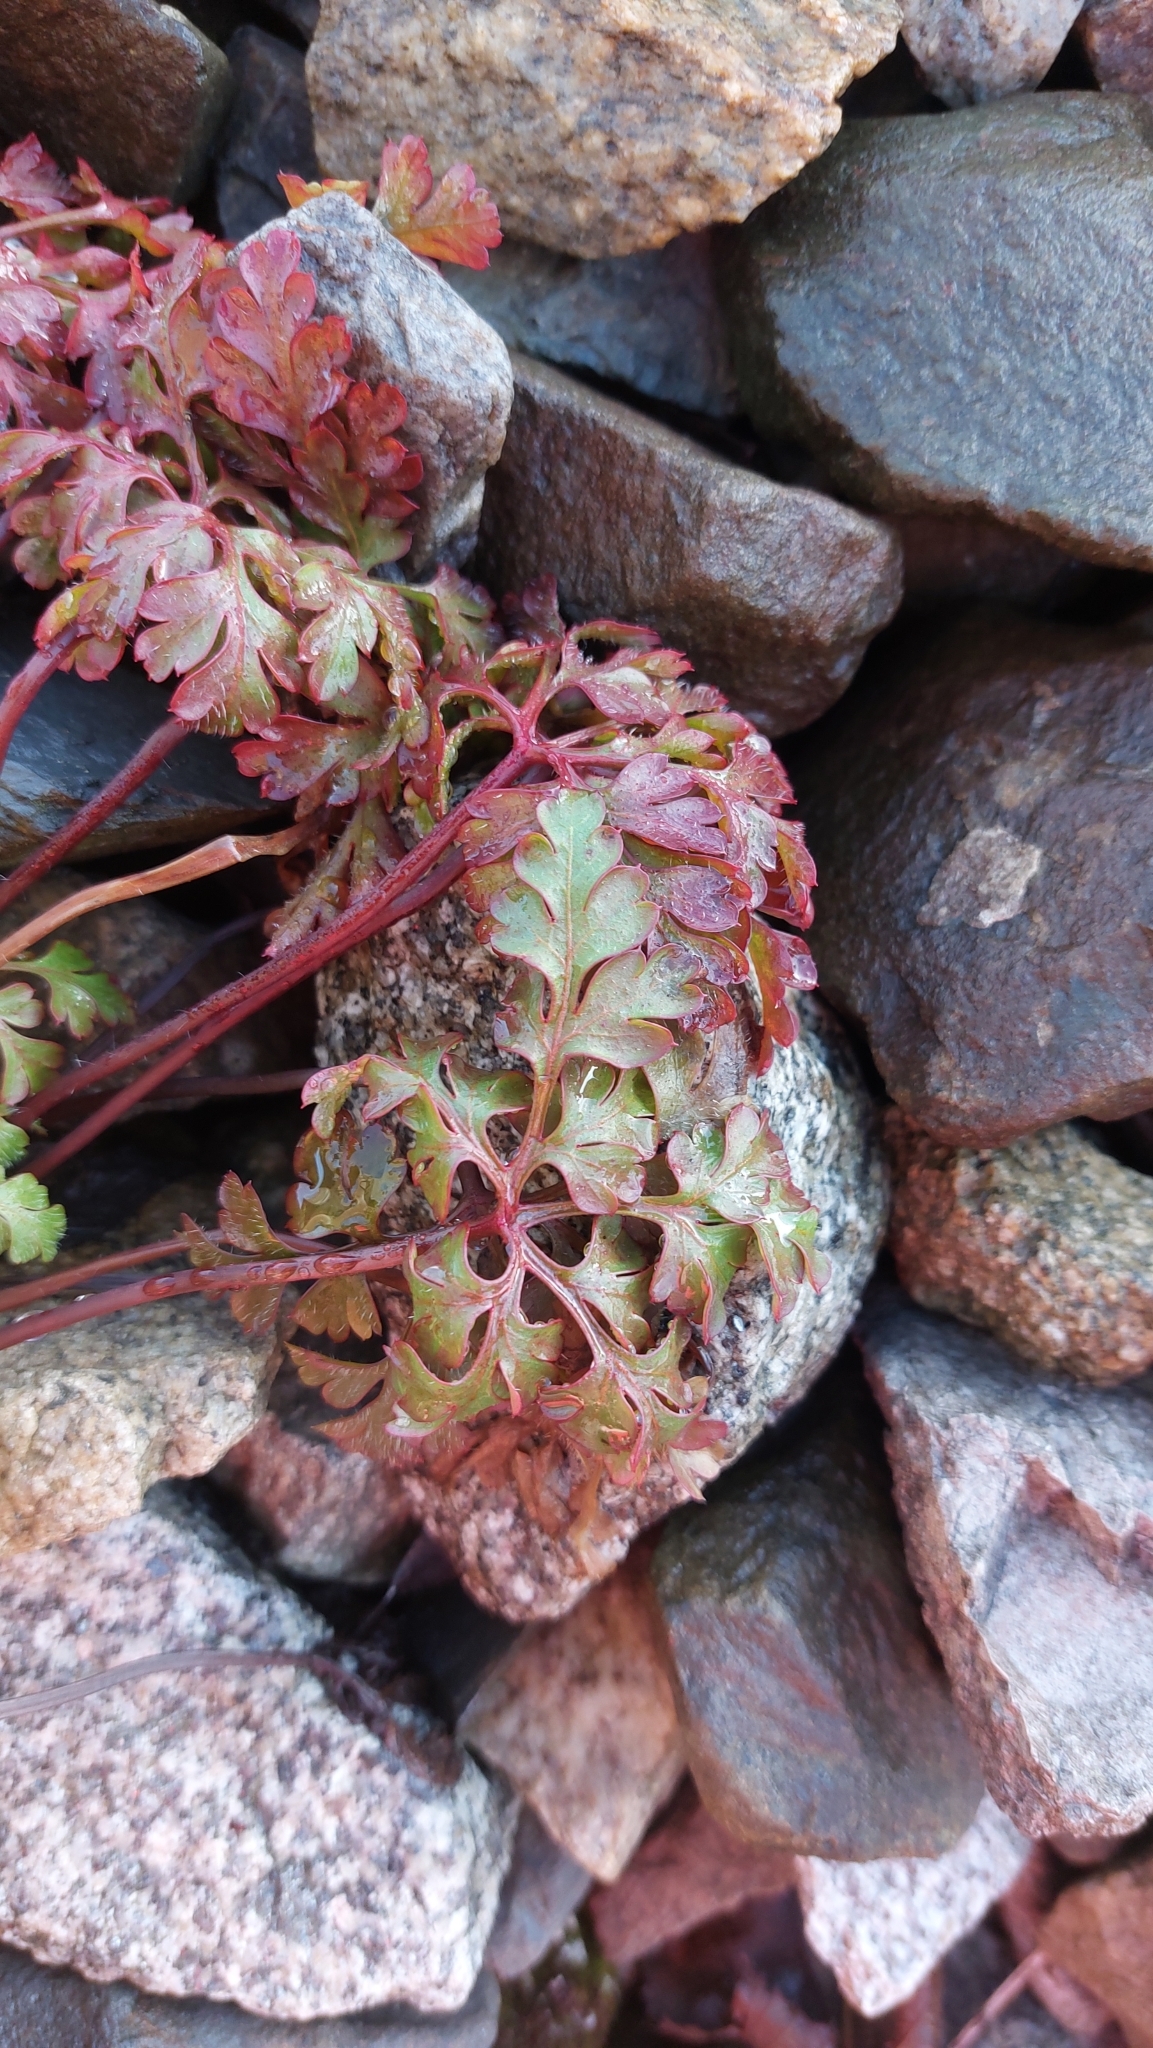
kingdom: Plantae
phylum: Tracheophyta
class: Magnoliopsida
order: Geraniales
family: Geraniaceae
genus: Geranium
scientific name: Geranium robertianum
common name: Herb-robert
